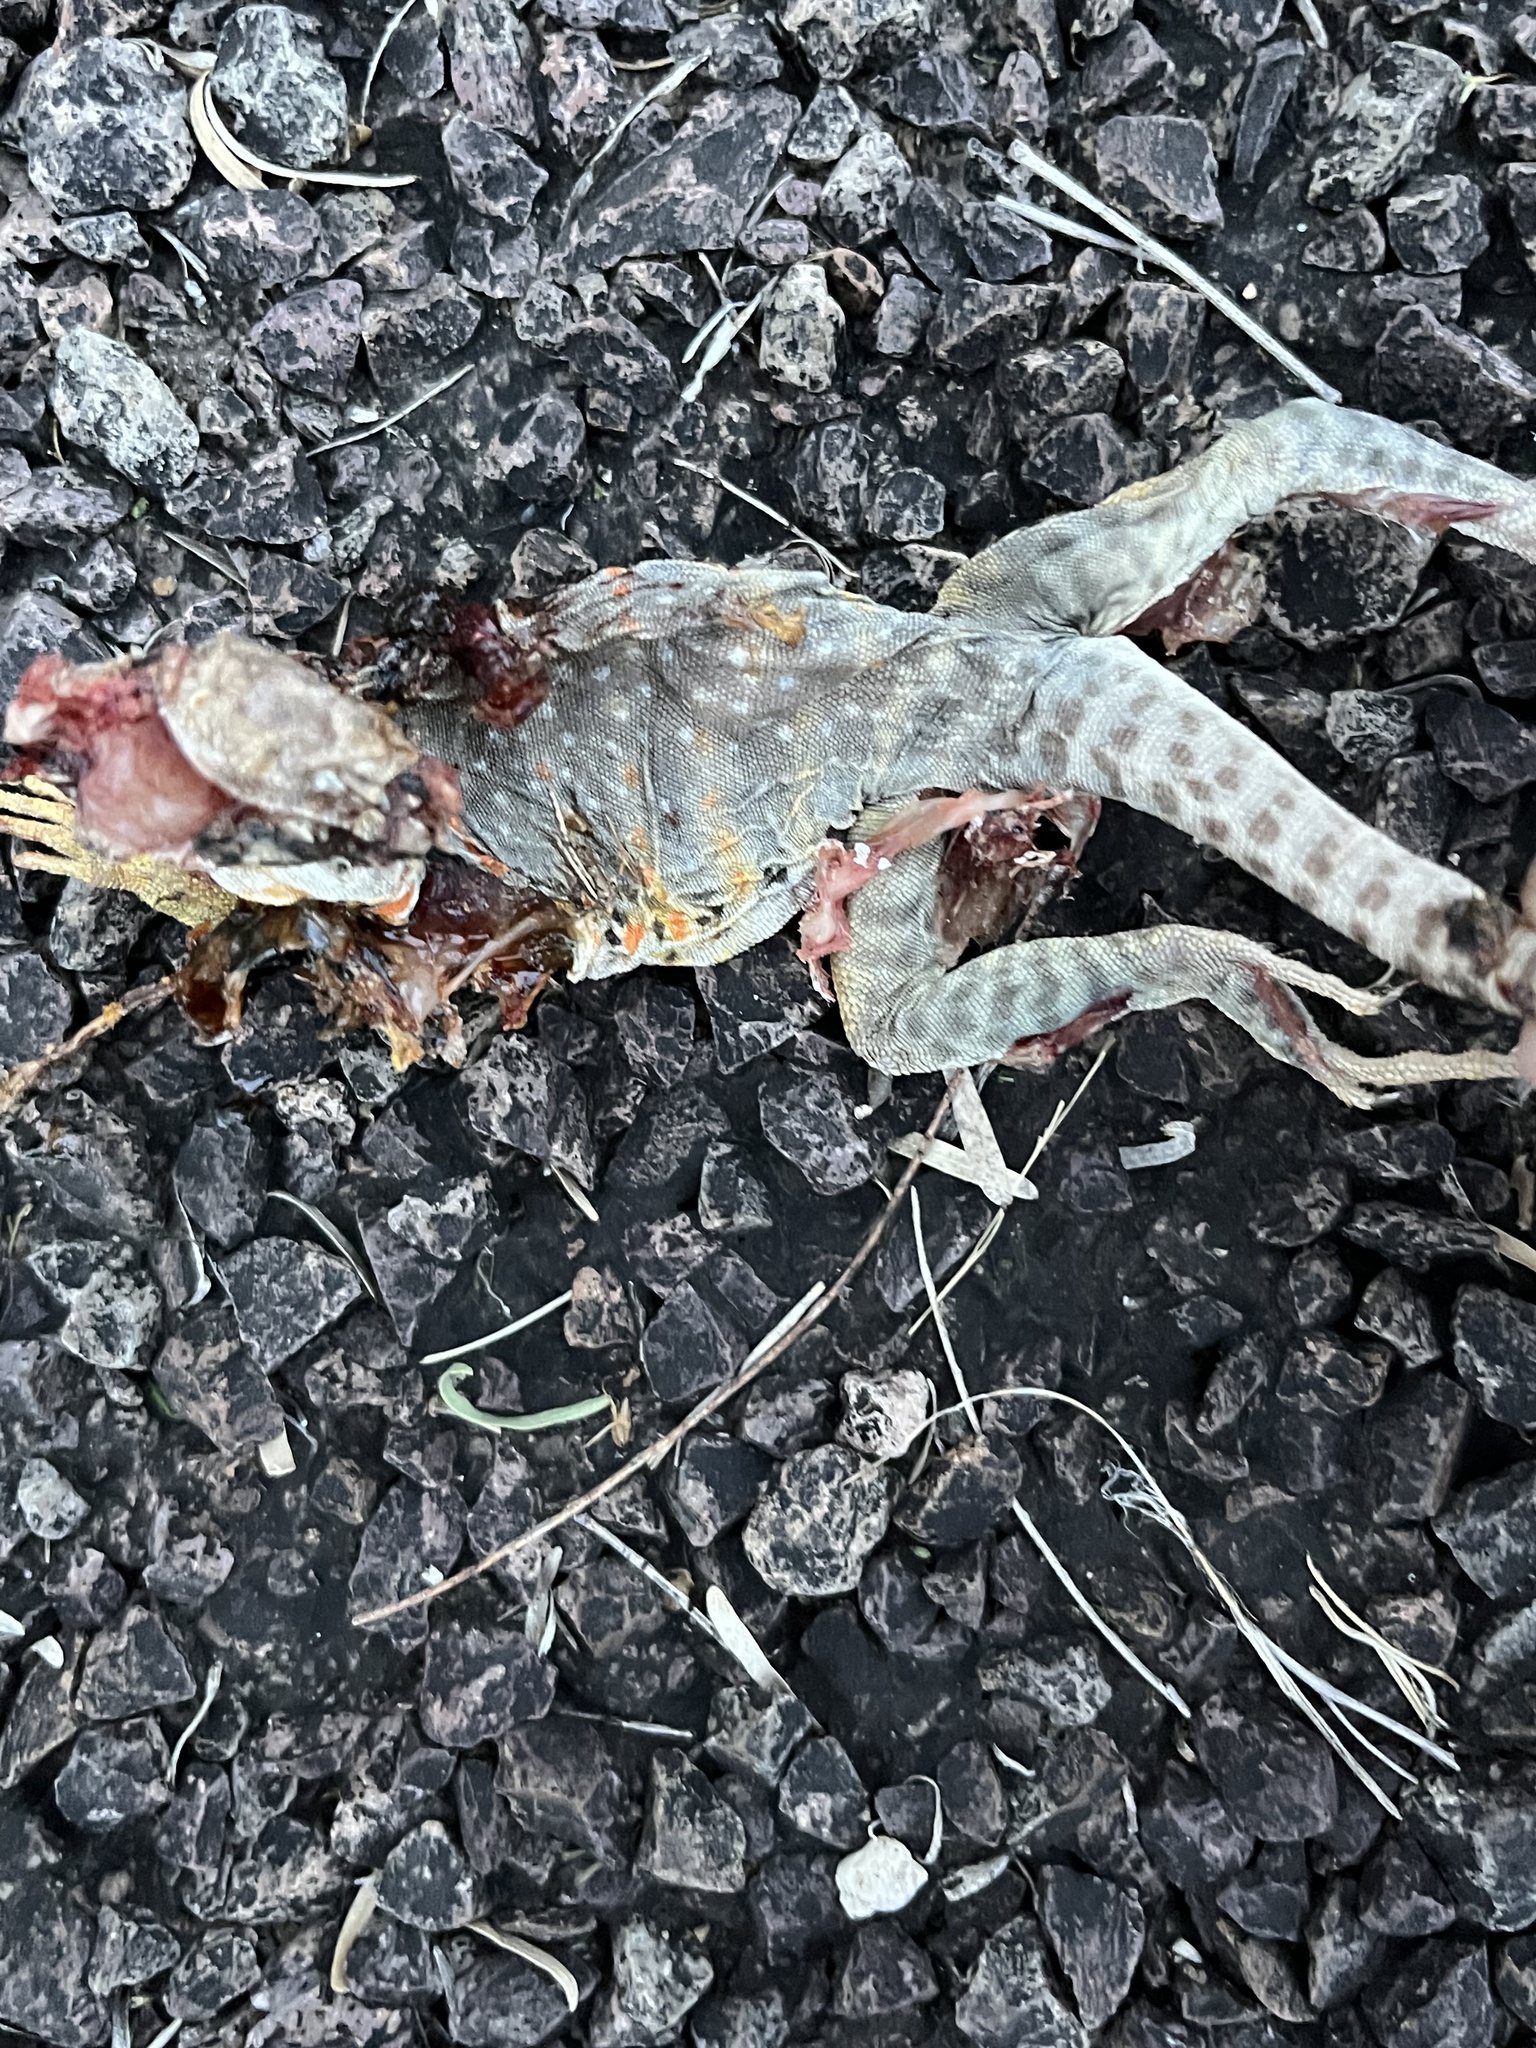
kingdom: Animalia
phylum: Chordata
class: Squamata
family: Crotaphytidae
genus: Crotaphytus
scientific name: Crotaphytus collaris
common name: Collared lizard
